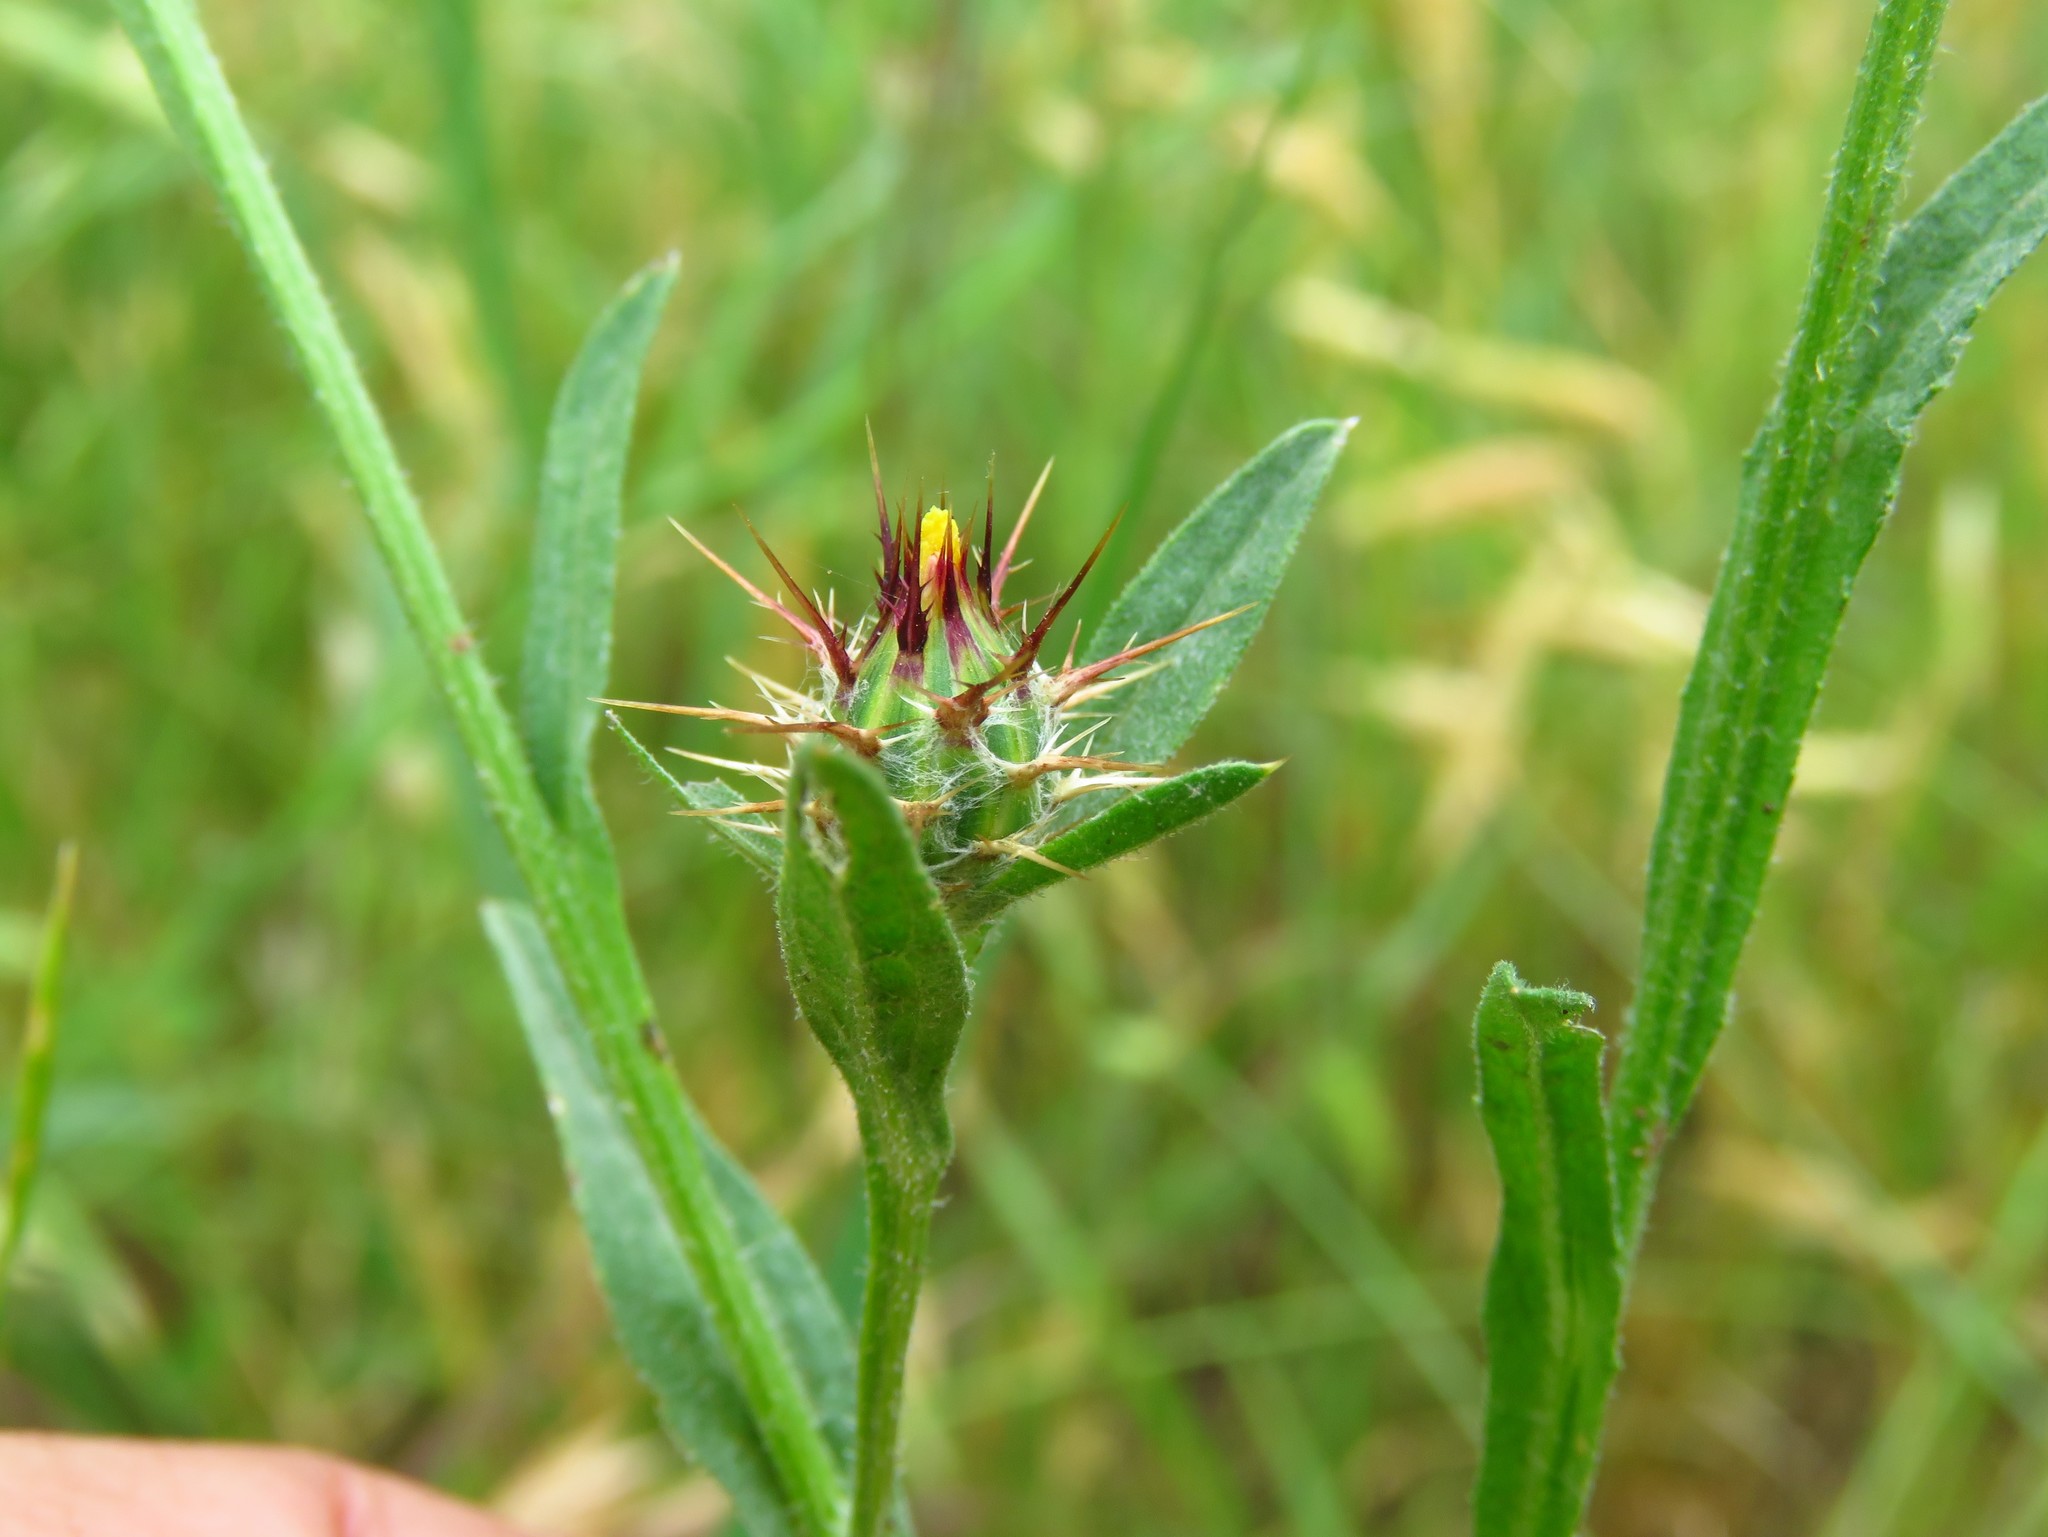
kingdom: Plantae
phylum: Tracheophyta
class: Magnoliopsida
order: Asterales
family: Asteraceae
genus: Centaurea
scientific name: Centaurea melitensis
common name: Maltese star-thistle
